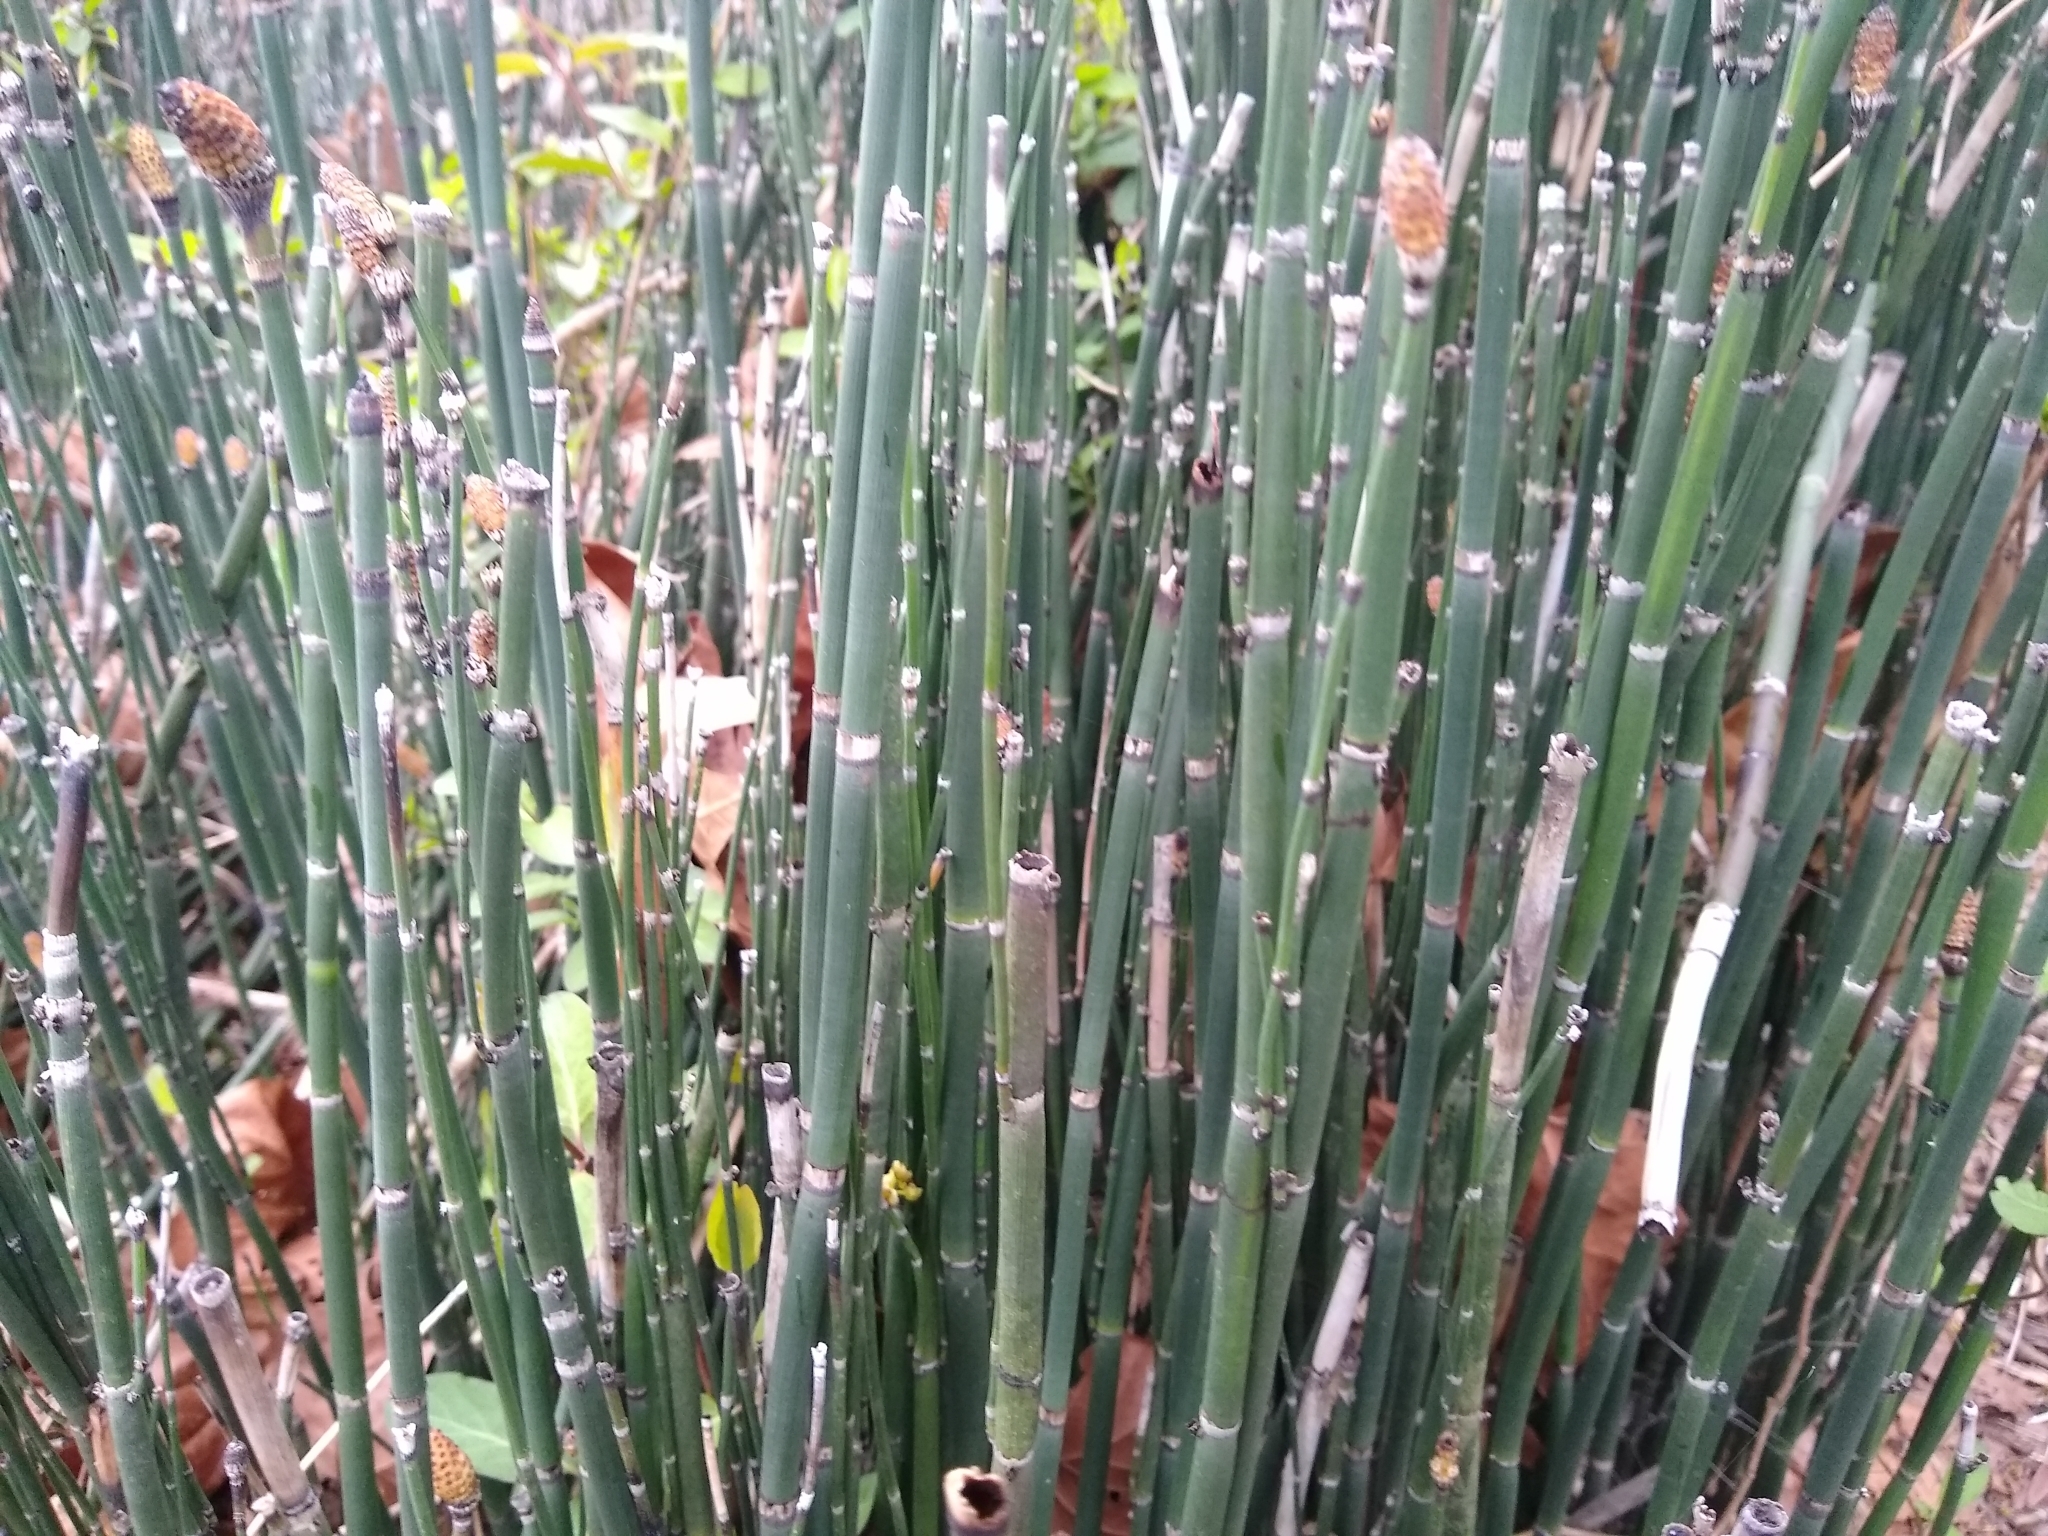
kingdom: Plantae
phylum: Tracheophyta
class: Polypodiopsida
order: Equisetales
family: Equisetaceae
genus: Equisetum
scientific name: Equisetum praealtum
